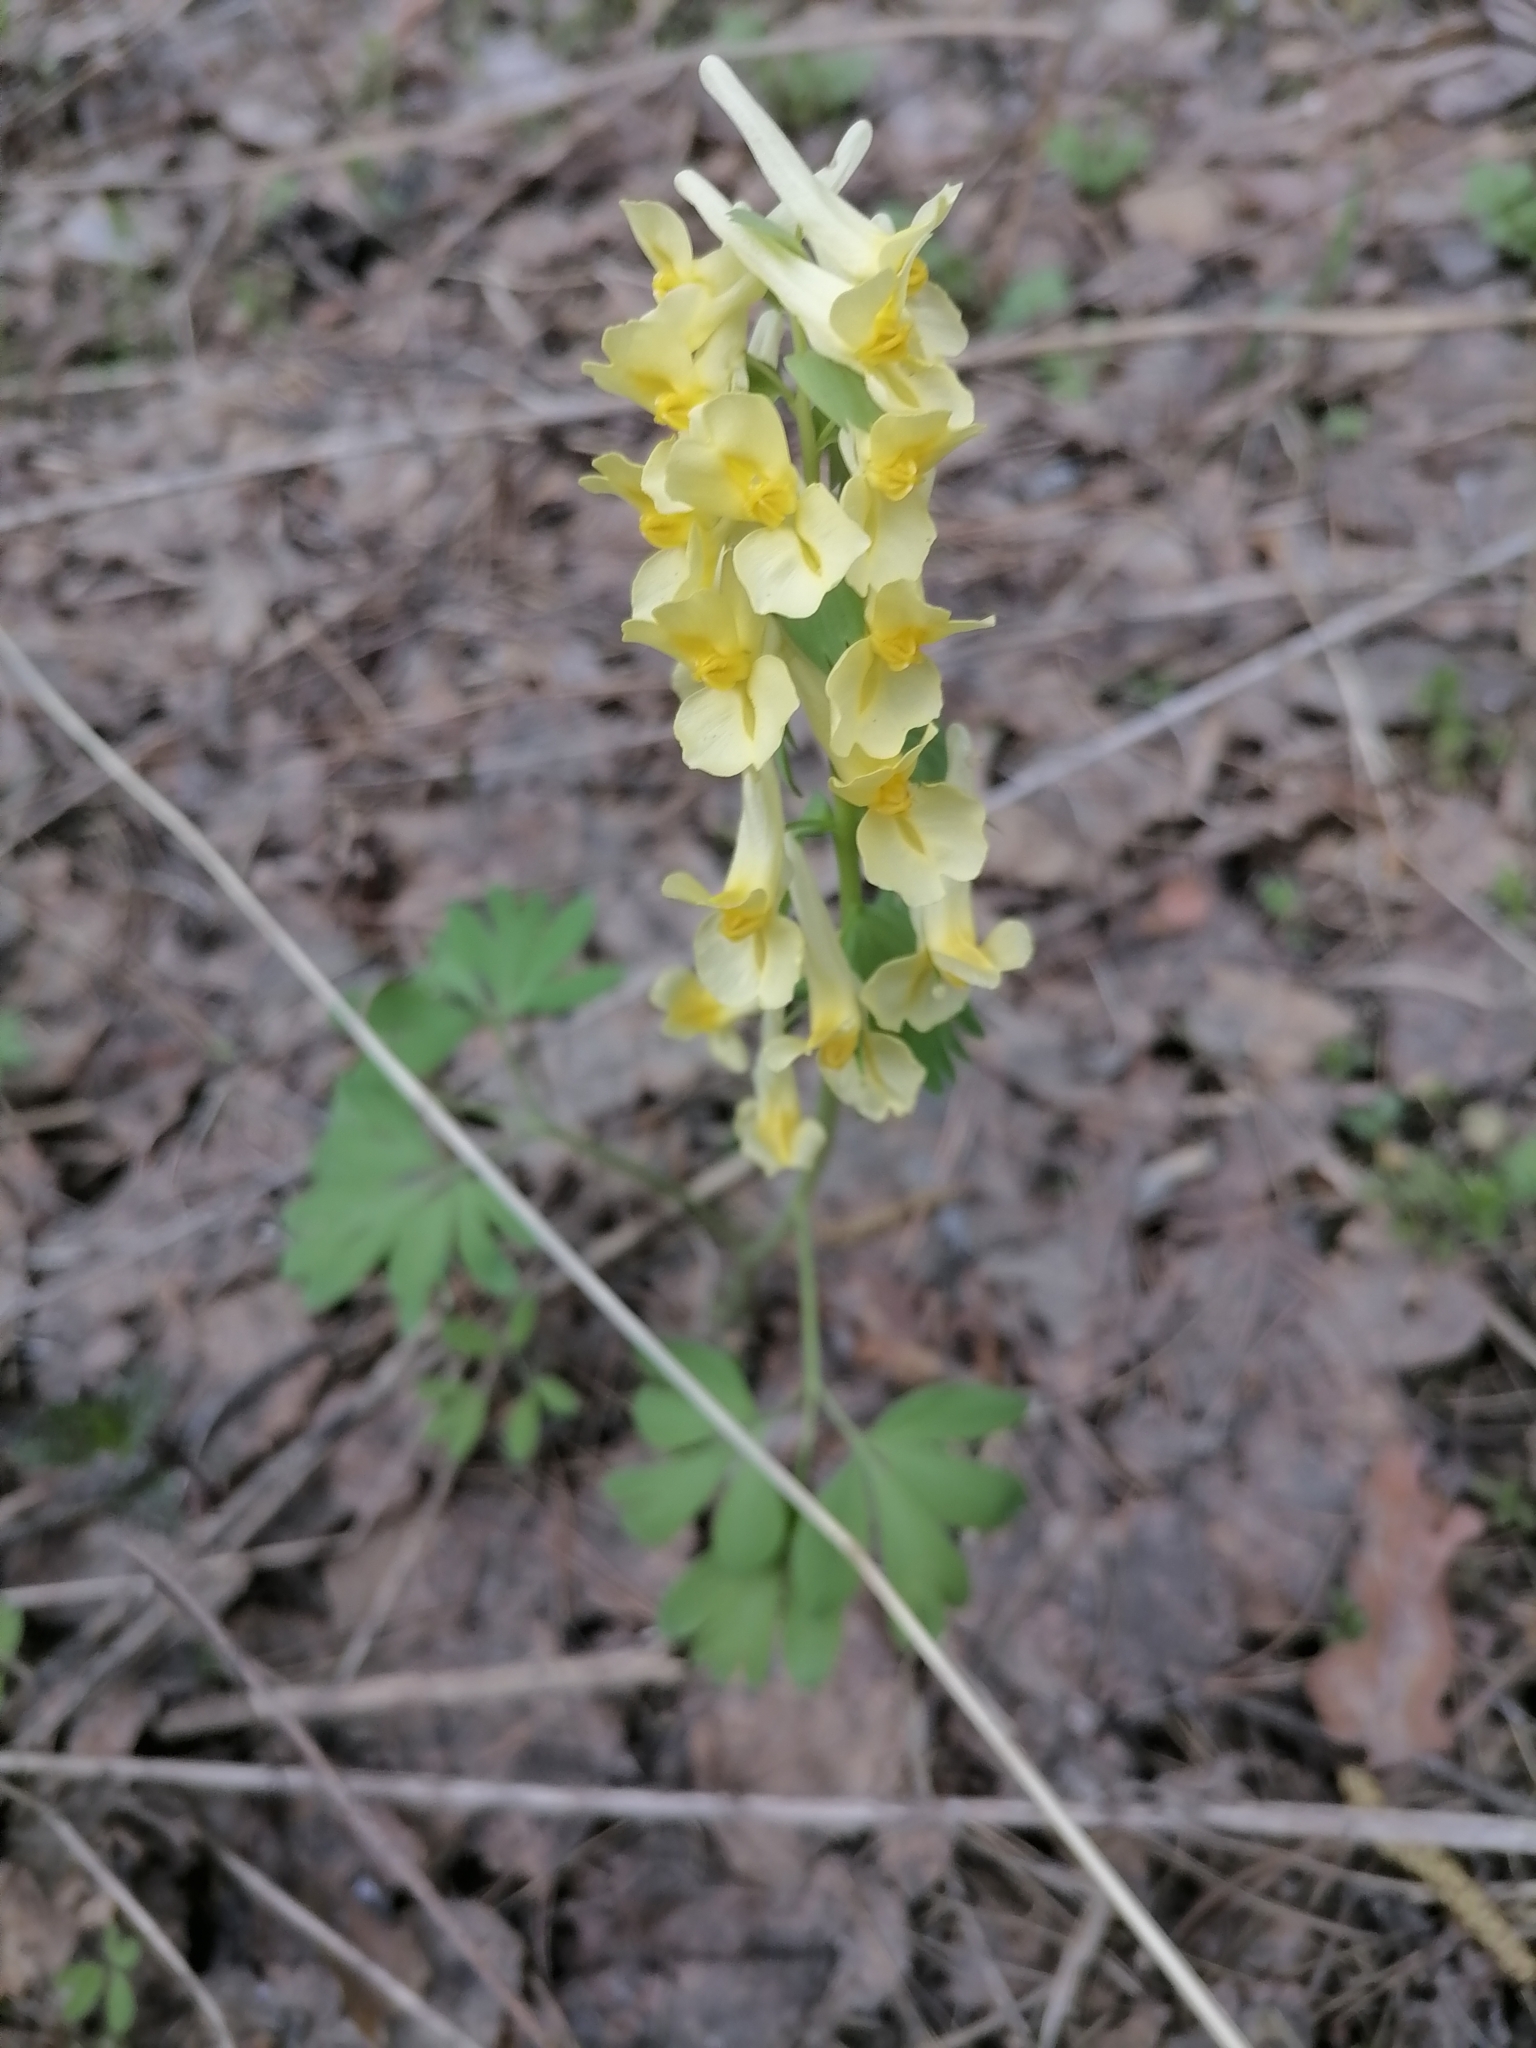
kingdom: Plantae
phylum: Tracheophyta
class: Magnoliopsida
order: Ranunculales
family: Papaveraceae
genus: Corydalis
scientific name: Corydalis bracteata
